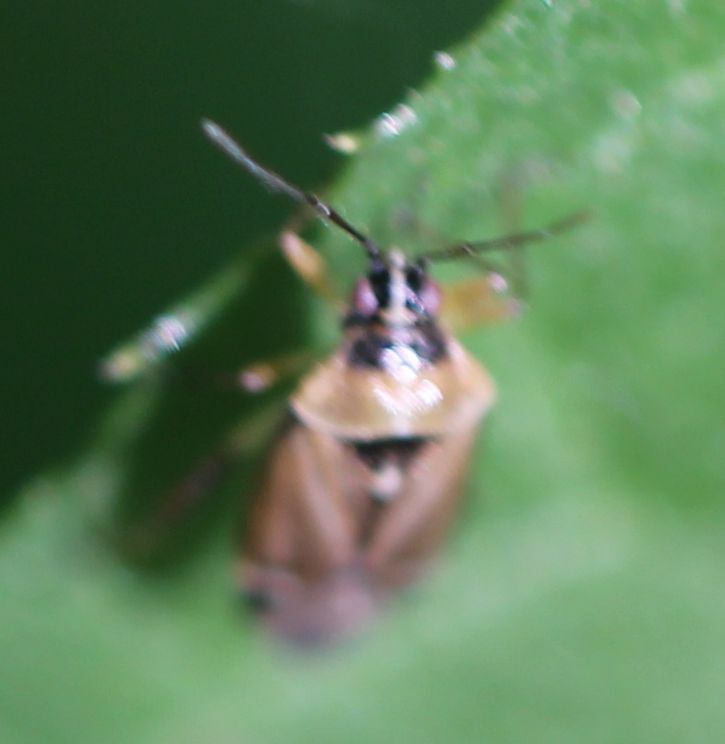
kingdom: Animalia
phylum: Arthropoda
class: Insecta
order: Hemiptera
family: Miridae
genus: Harpocera
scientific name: Harpocera thoracica
